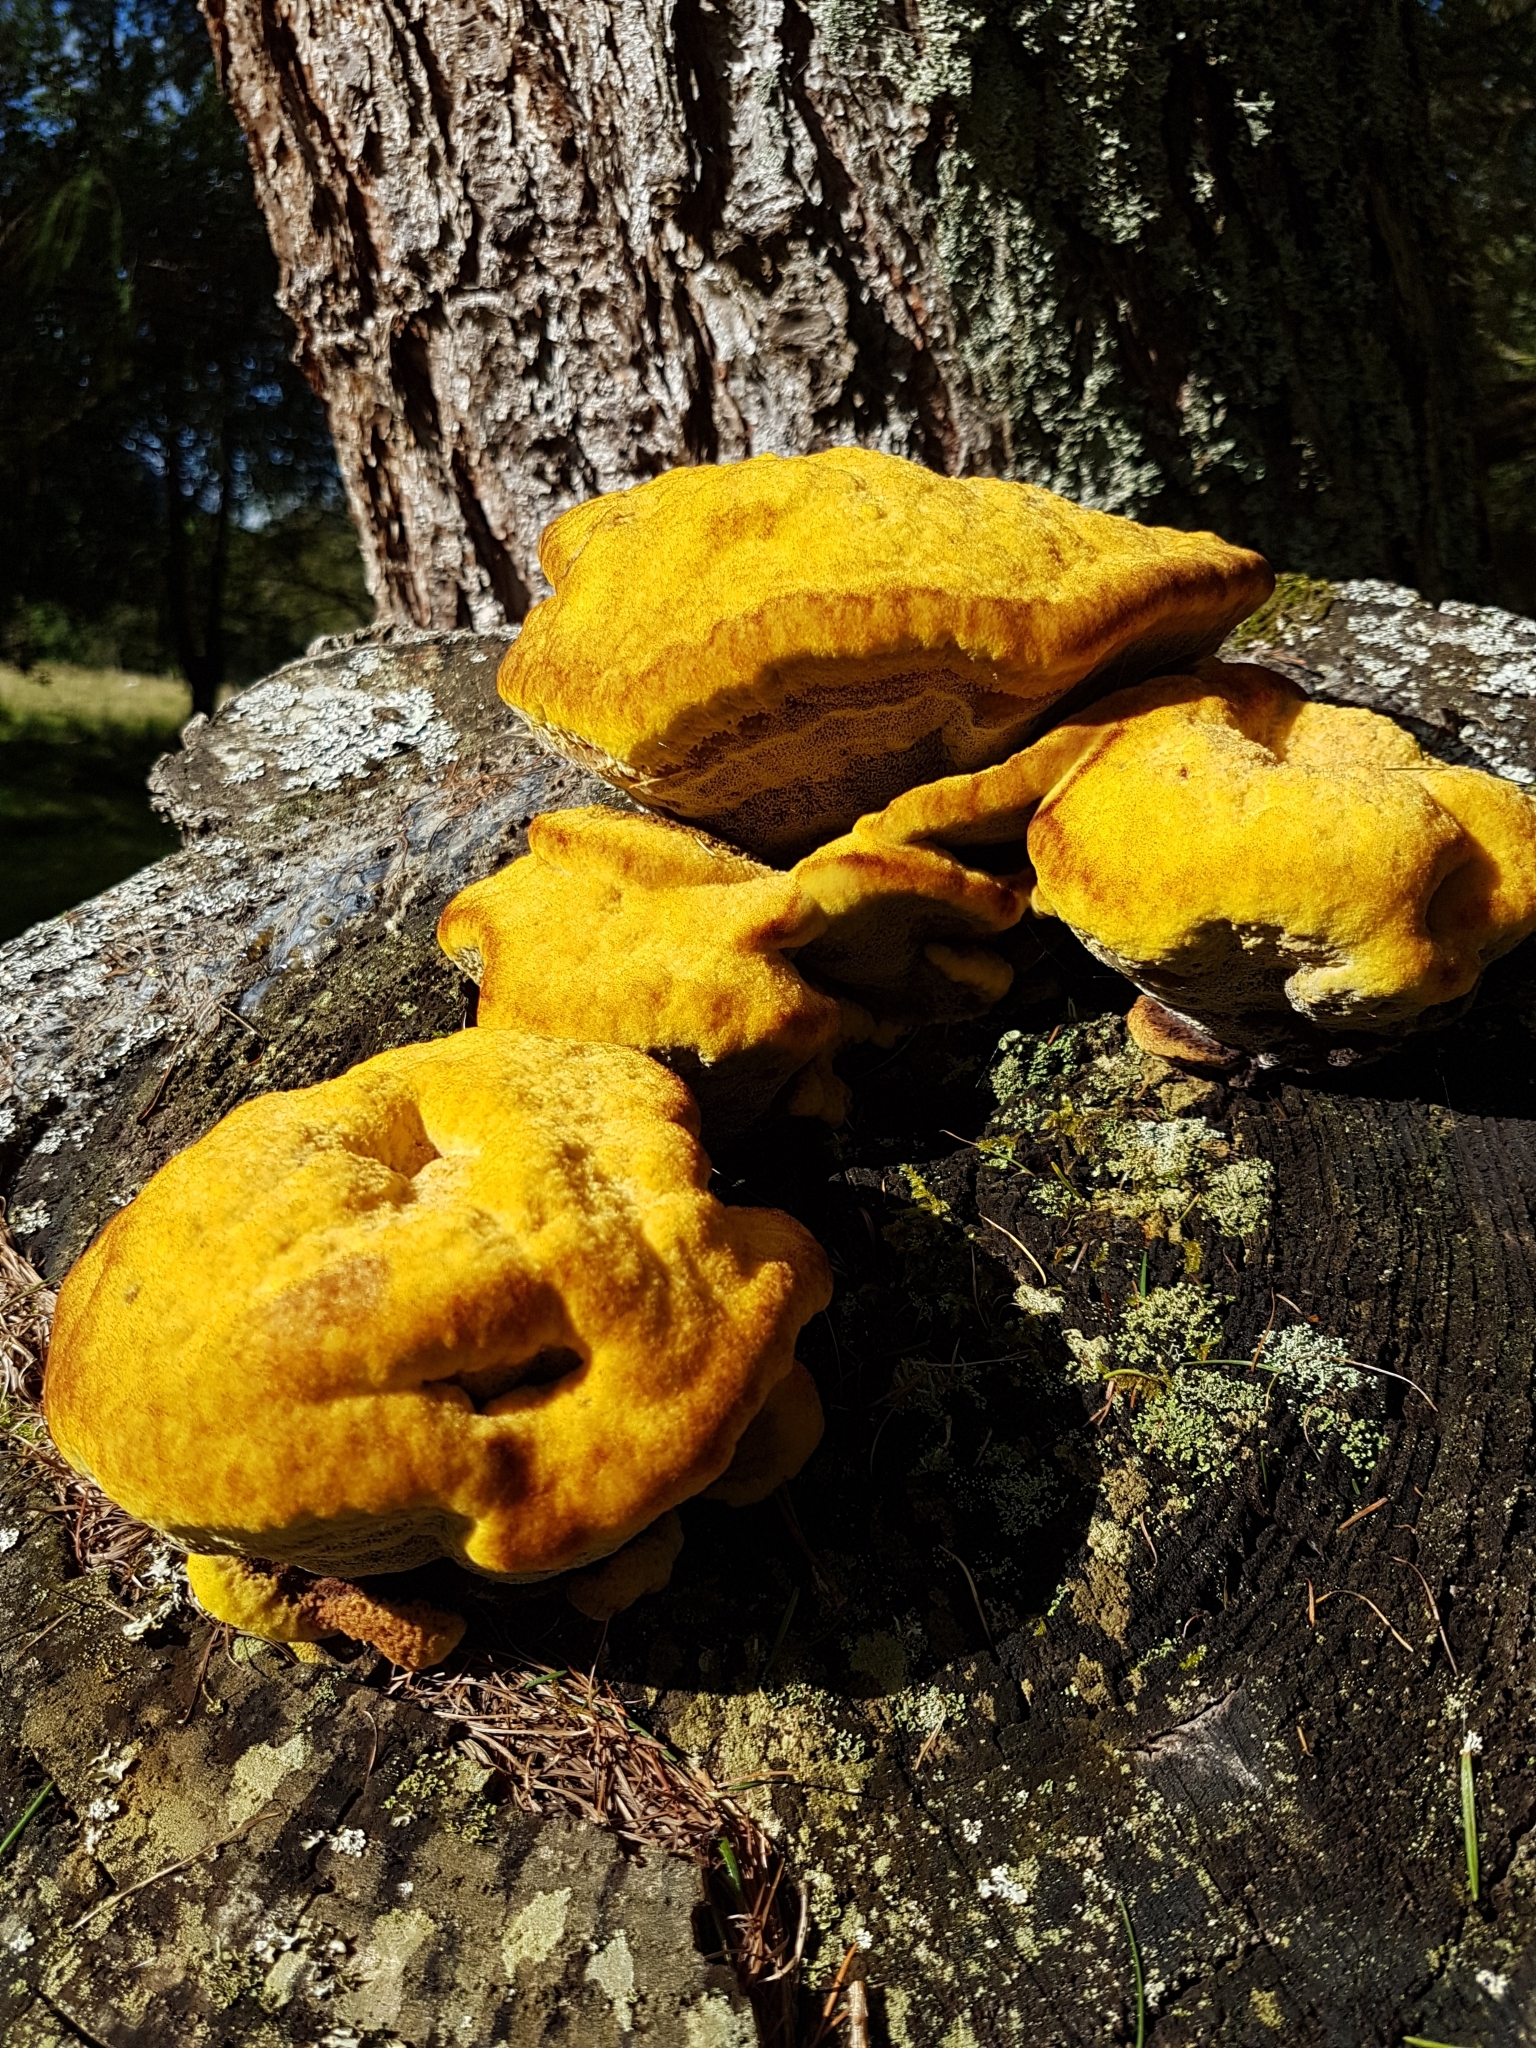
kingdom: Fungi
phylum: Basidiomycota
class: Agaricomycetes
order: Polyporales
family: Laetiporaceae
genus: Phaeolus
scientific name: Phaeolus schweinitzii
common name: Dyer's mazegill
